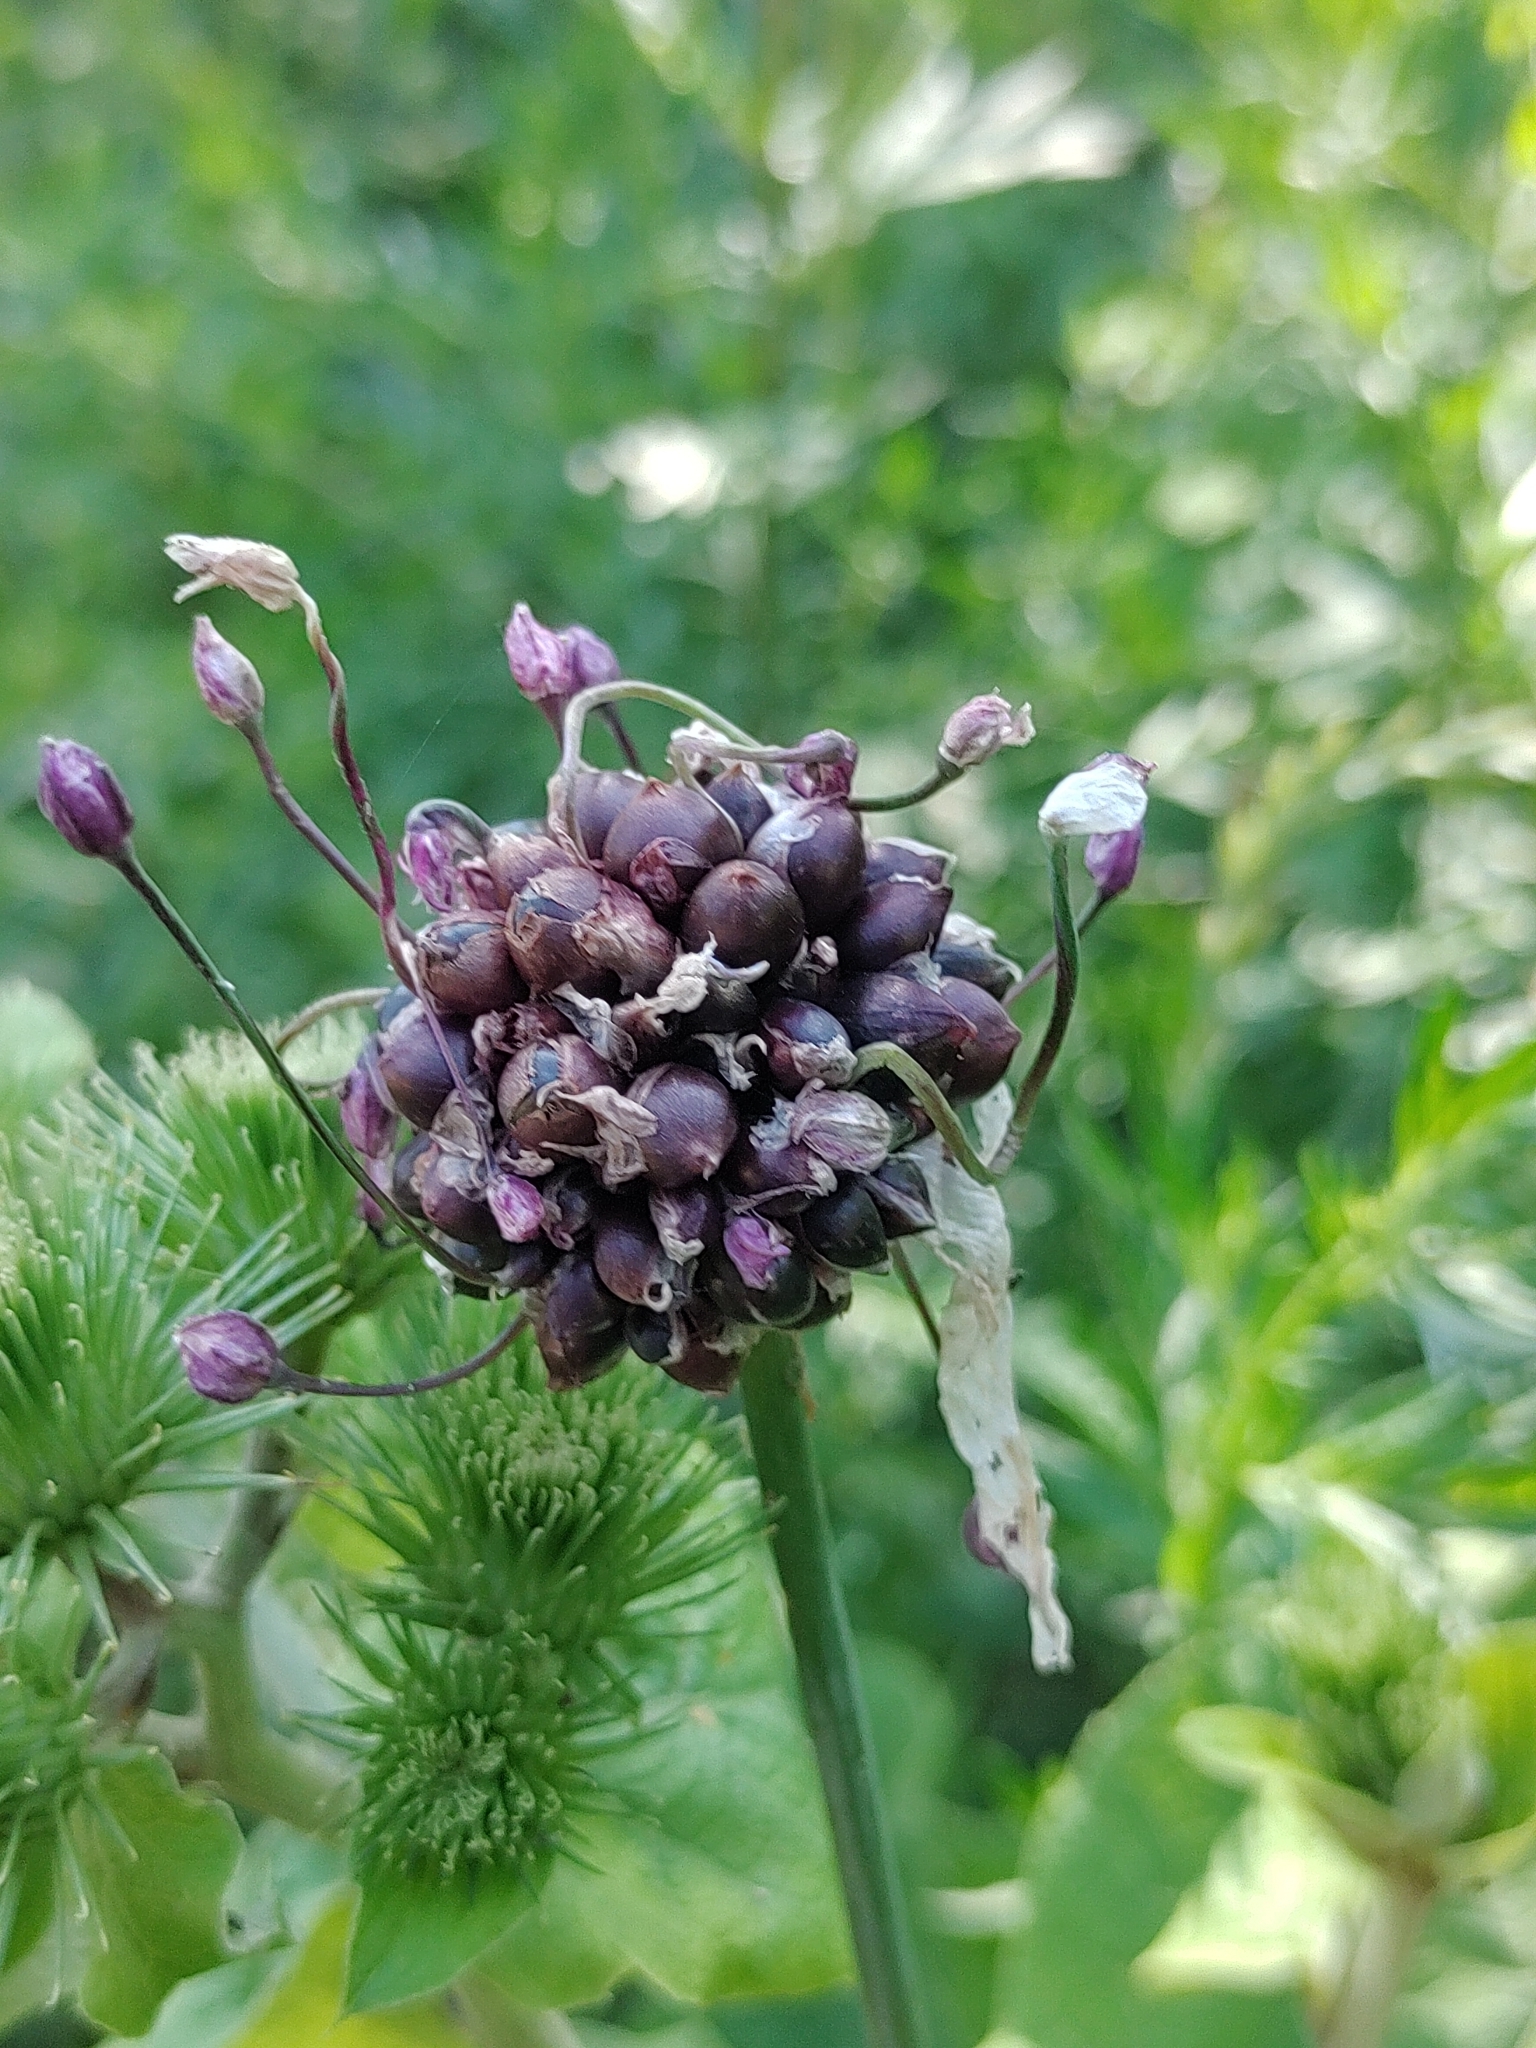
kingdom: Plantae
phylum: Tracheophyta
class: Liliopsida
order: Asparagales
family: Amaryllidaceae
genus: Allium
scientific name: Allium scorodoprasum
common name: Sand leek
